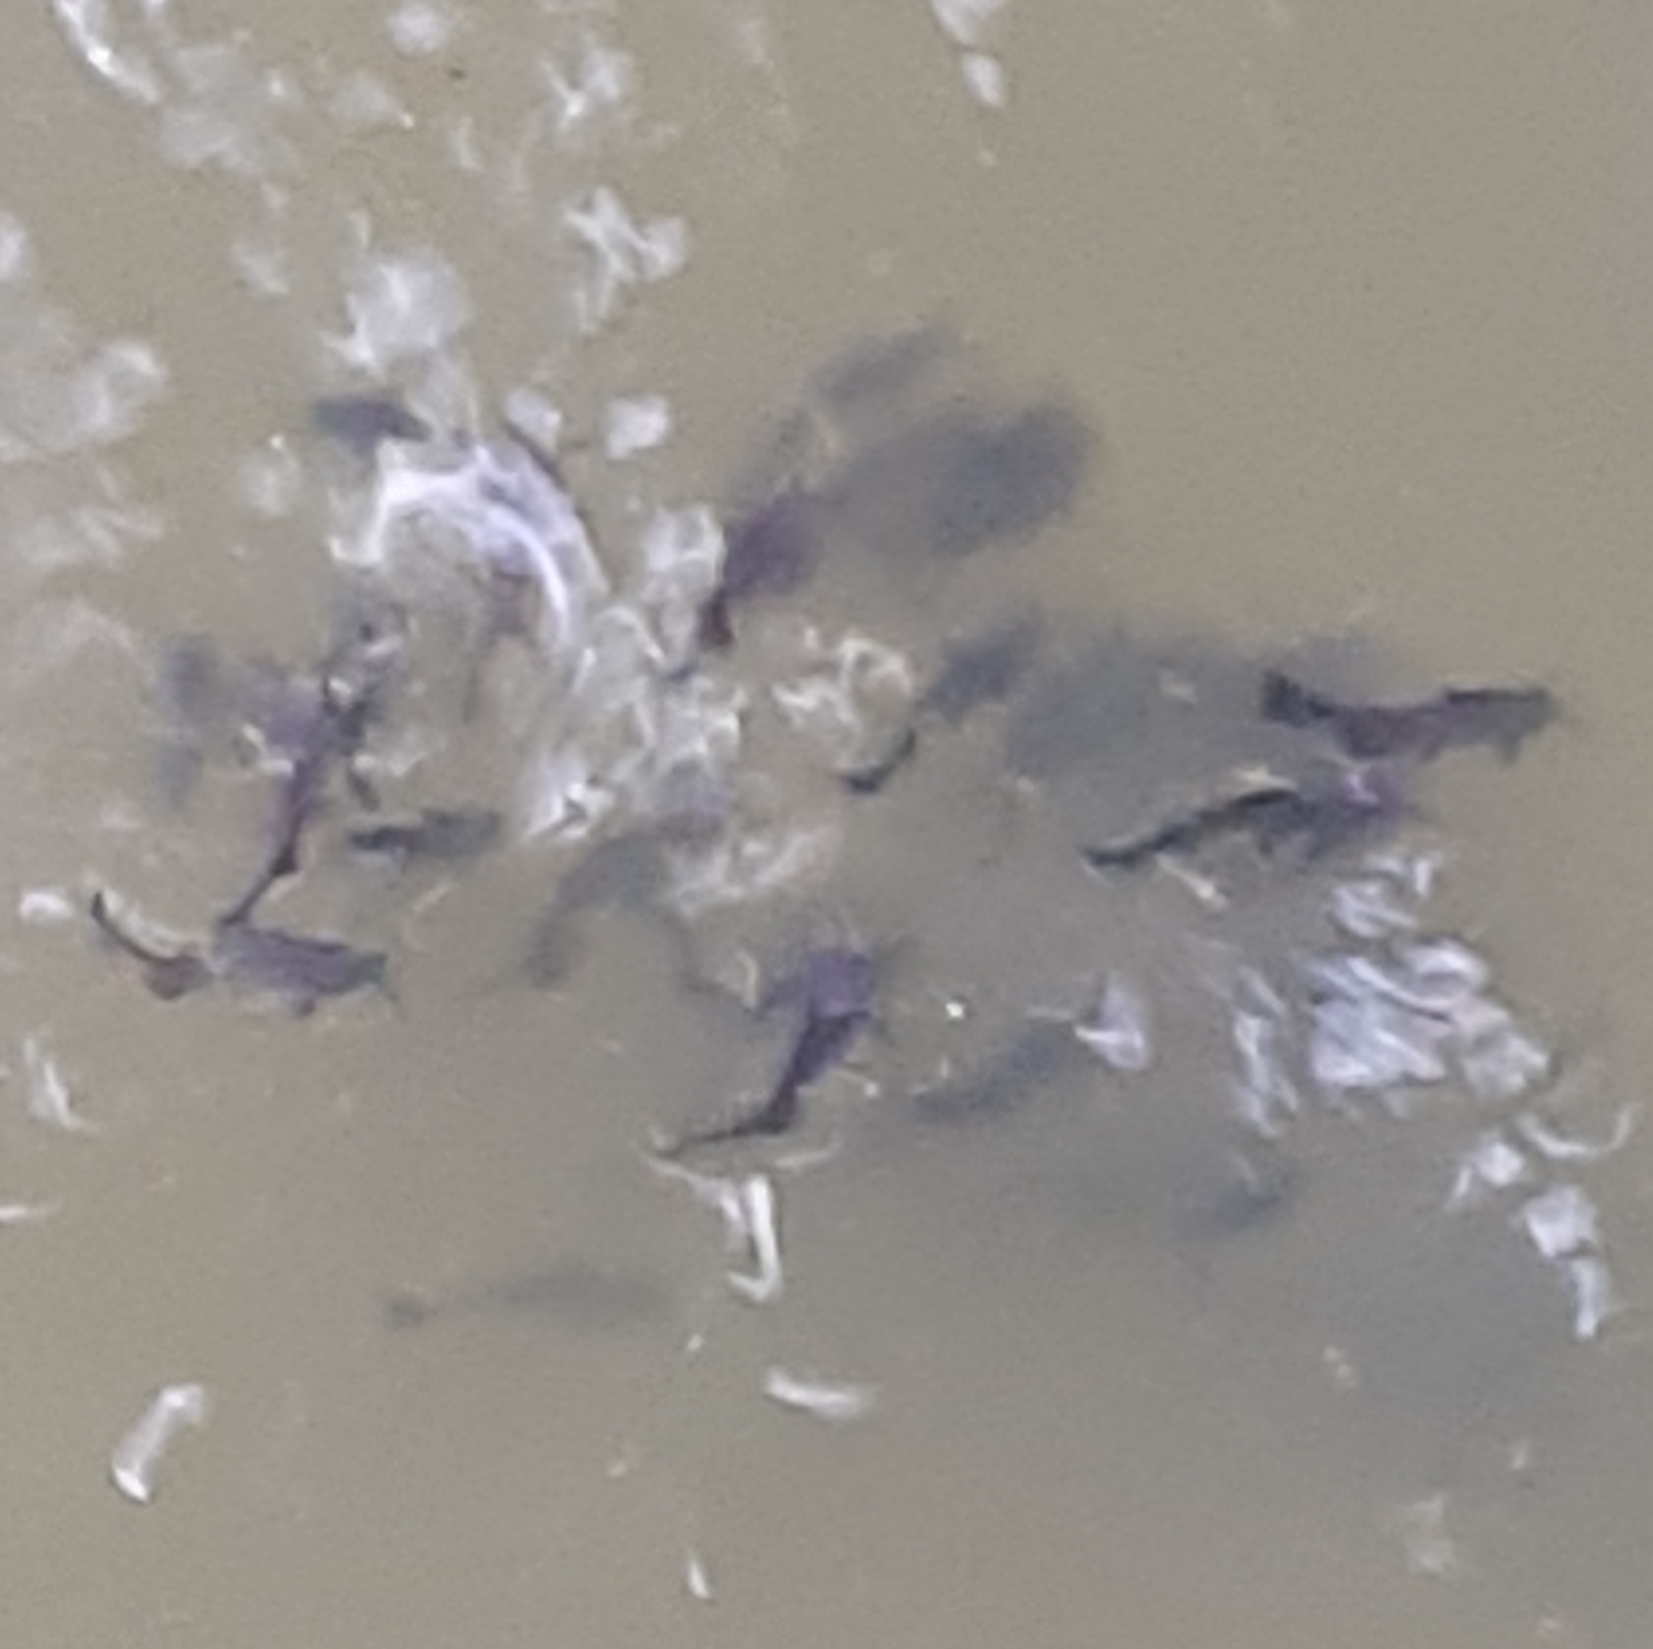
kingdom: Animalia
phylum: Chordata
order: Siluriformes
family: Ictaluridae
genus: Ameiurus
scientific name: Ameiurus melas
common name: Black bullhead
